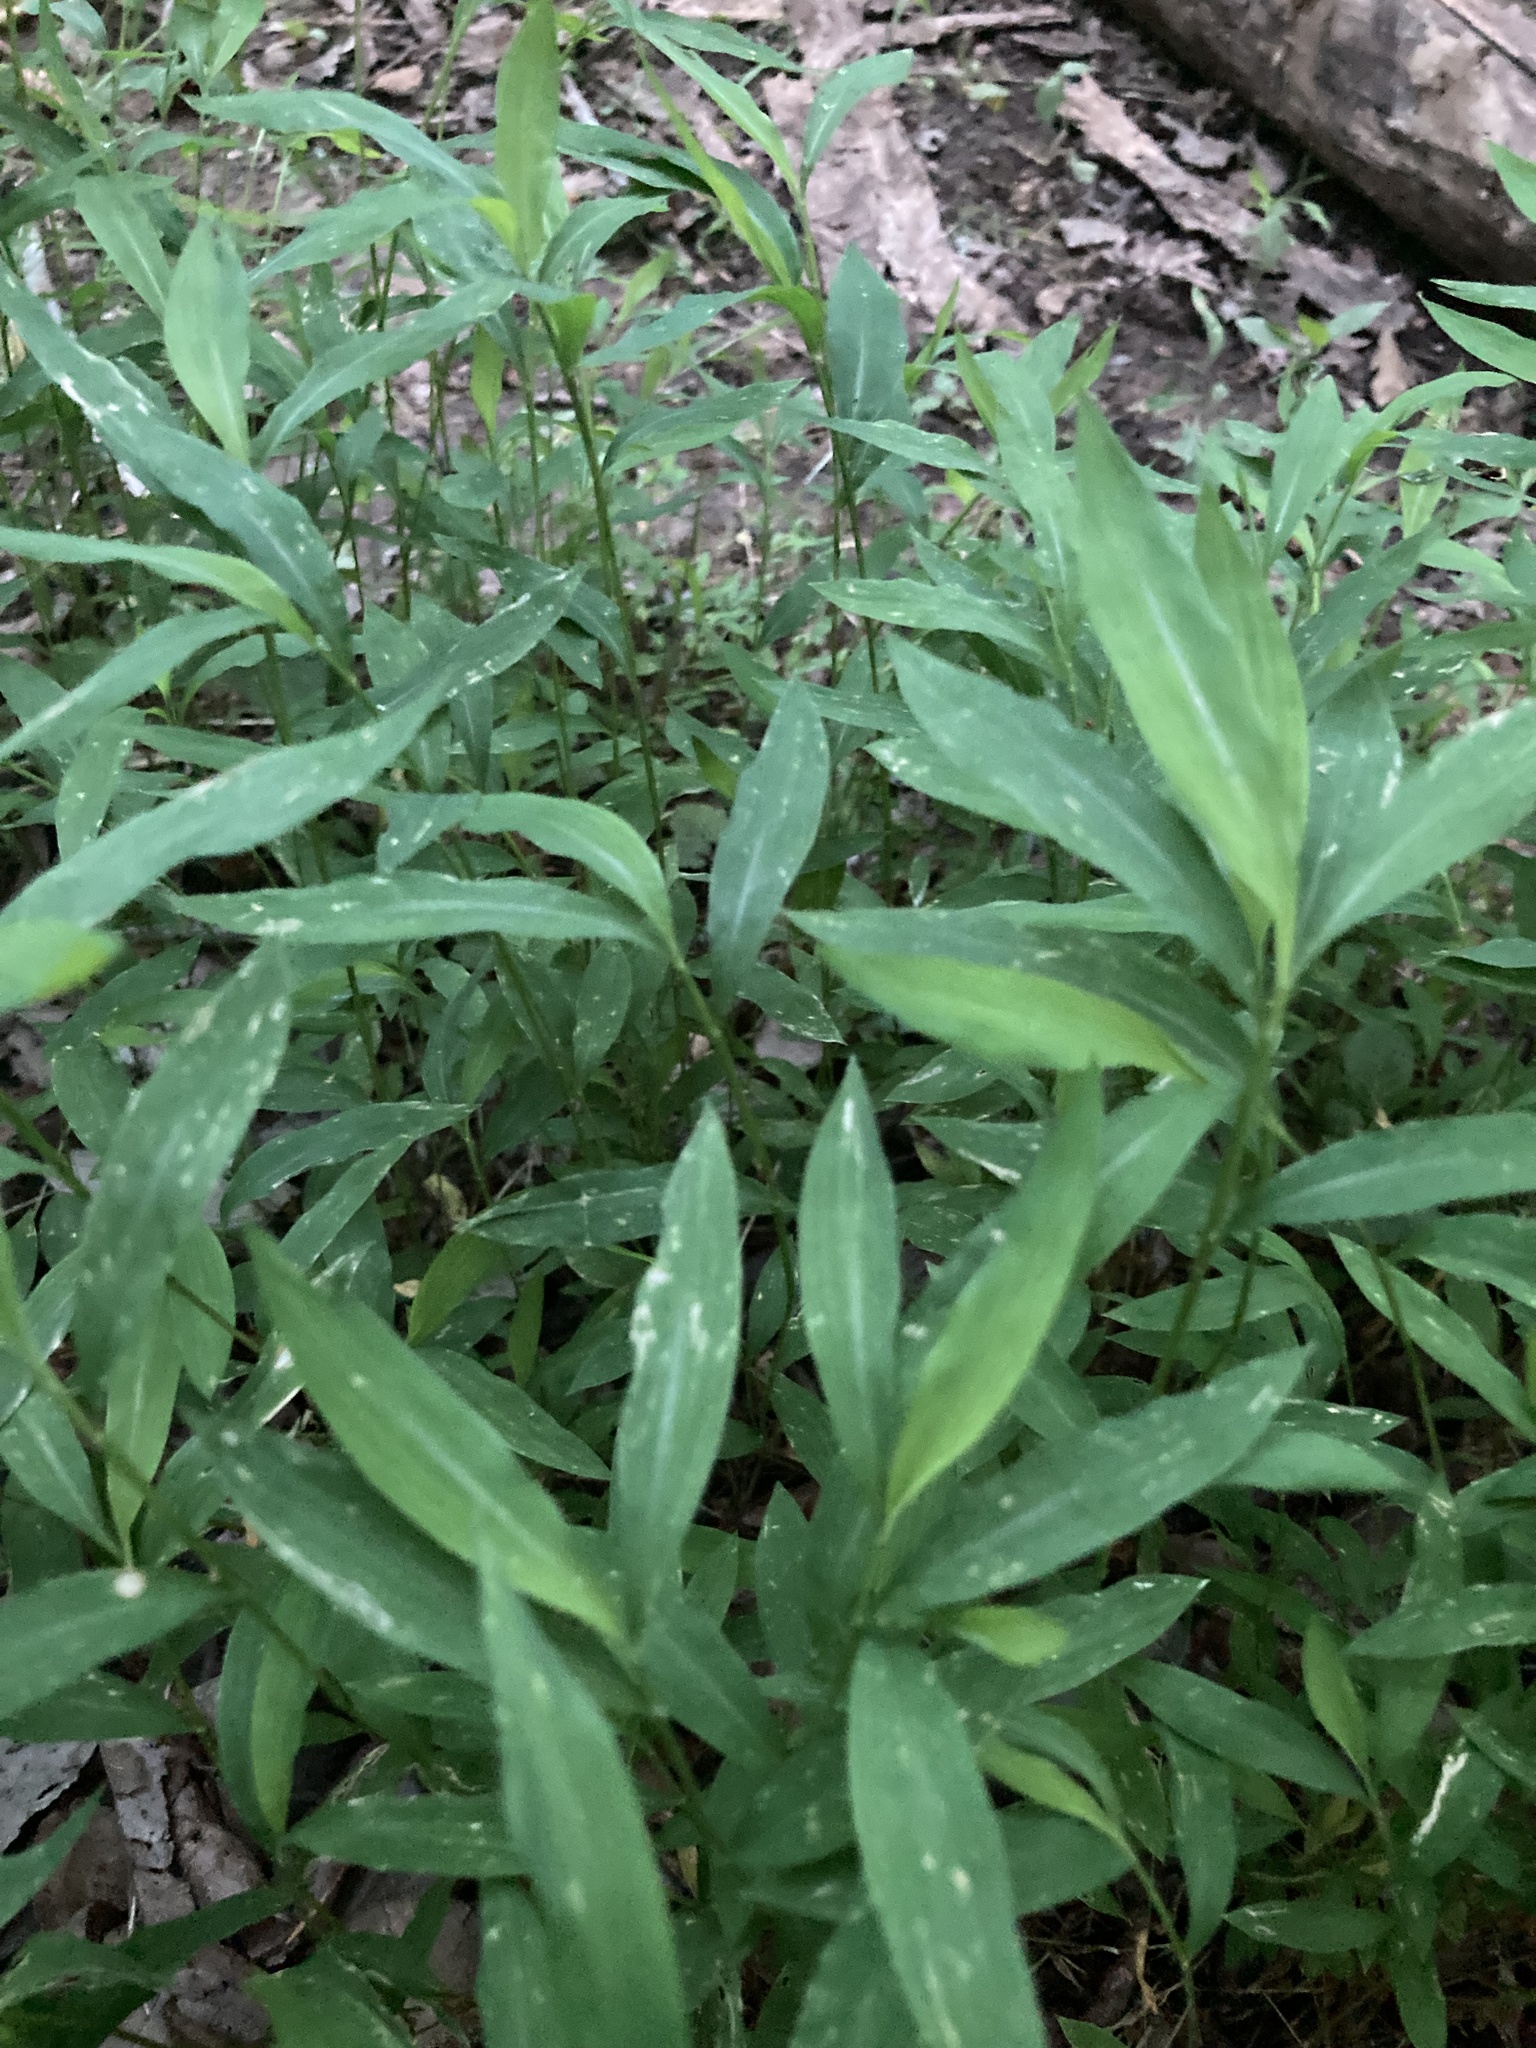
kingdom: Plantae
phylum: Tracheophyta
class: Liliopsida
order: Poales
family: Poaceae
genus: Microstegium
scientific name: Microstegium vimineum
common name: Japanese stiltgrass
